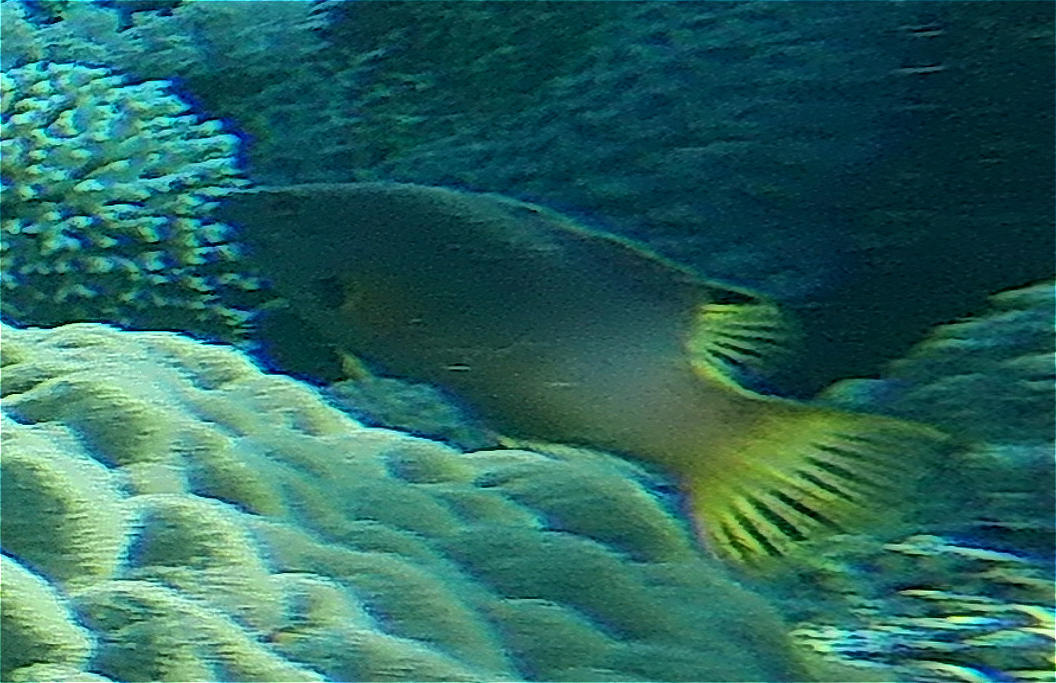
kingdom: Animalia
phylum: Chordata
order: Perciformes
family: Labridae
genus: Bodianus
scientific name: Bodianus axillaris
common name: Axilspot hogfish
